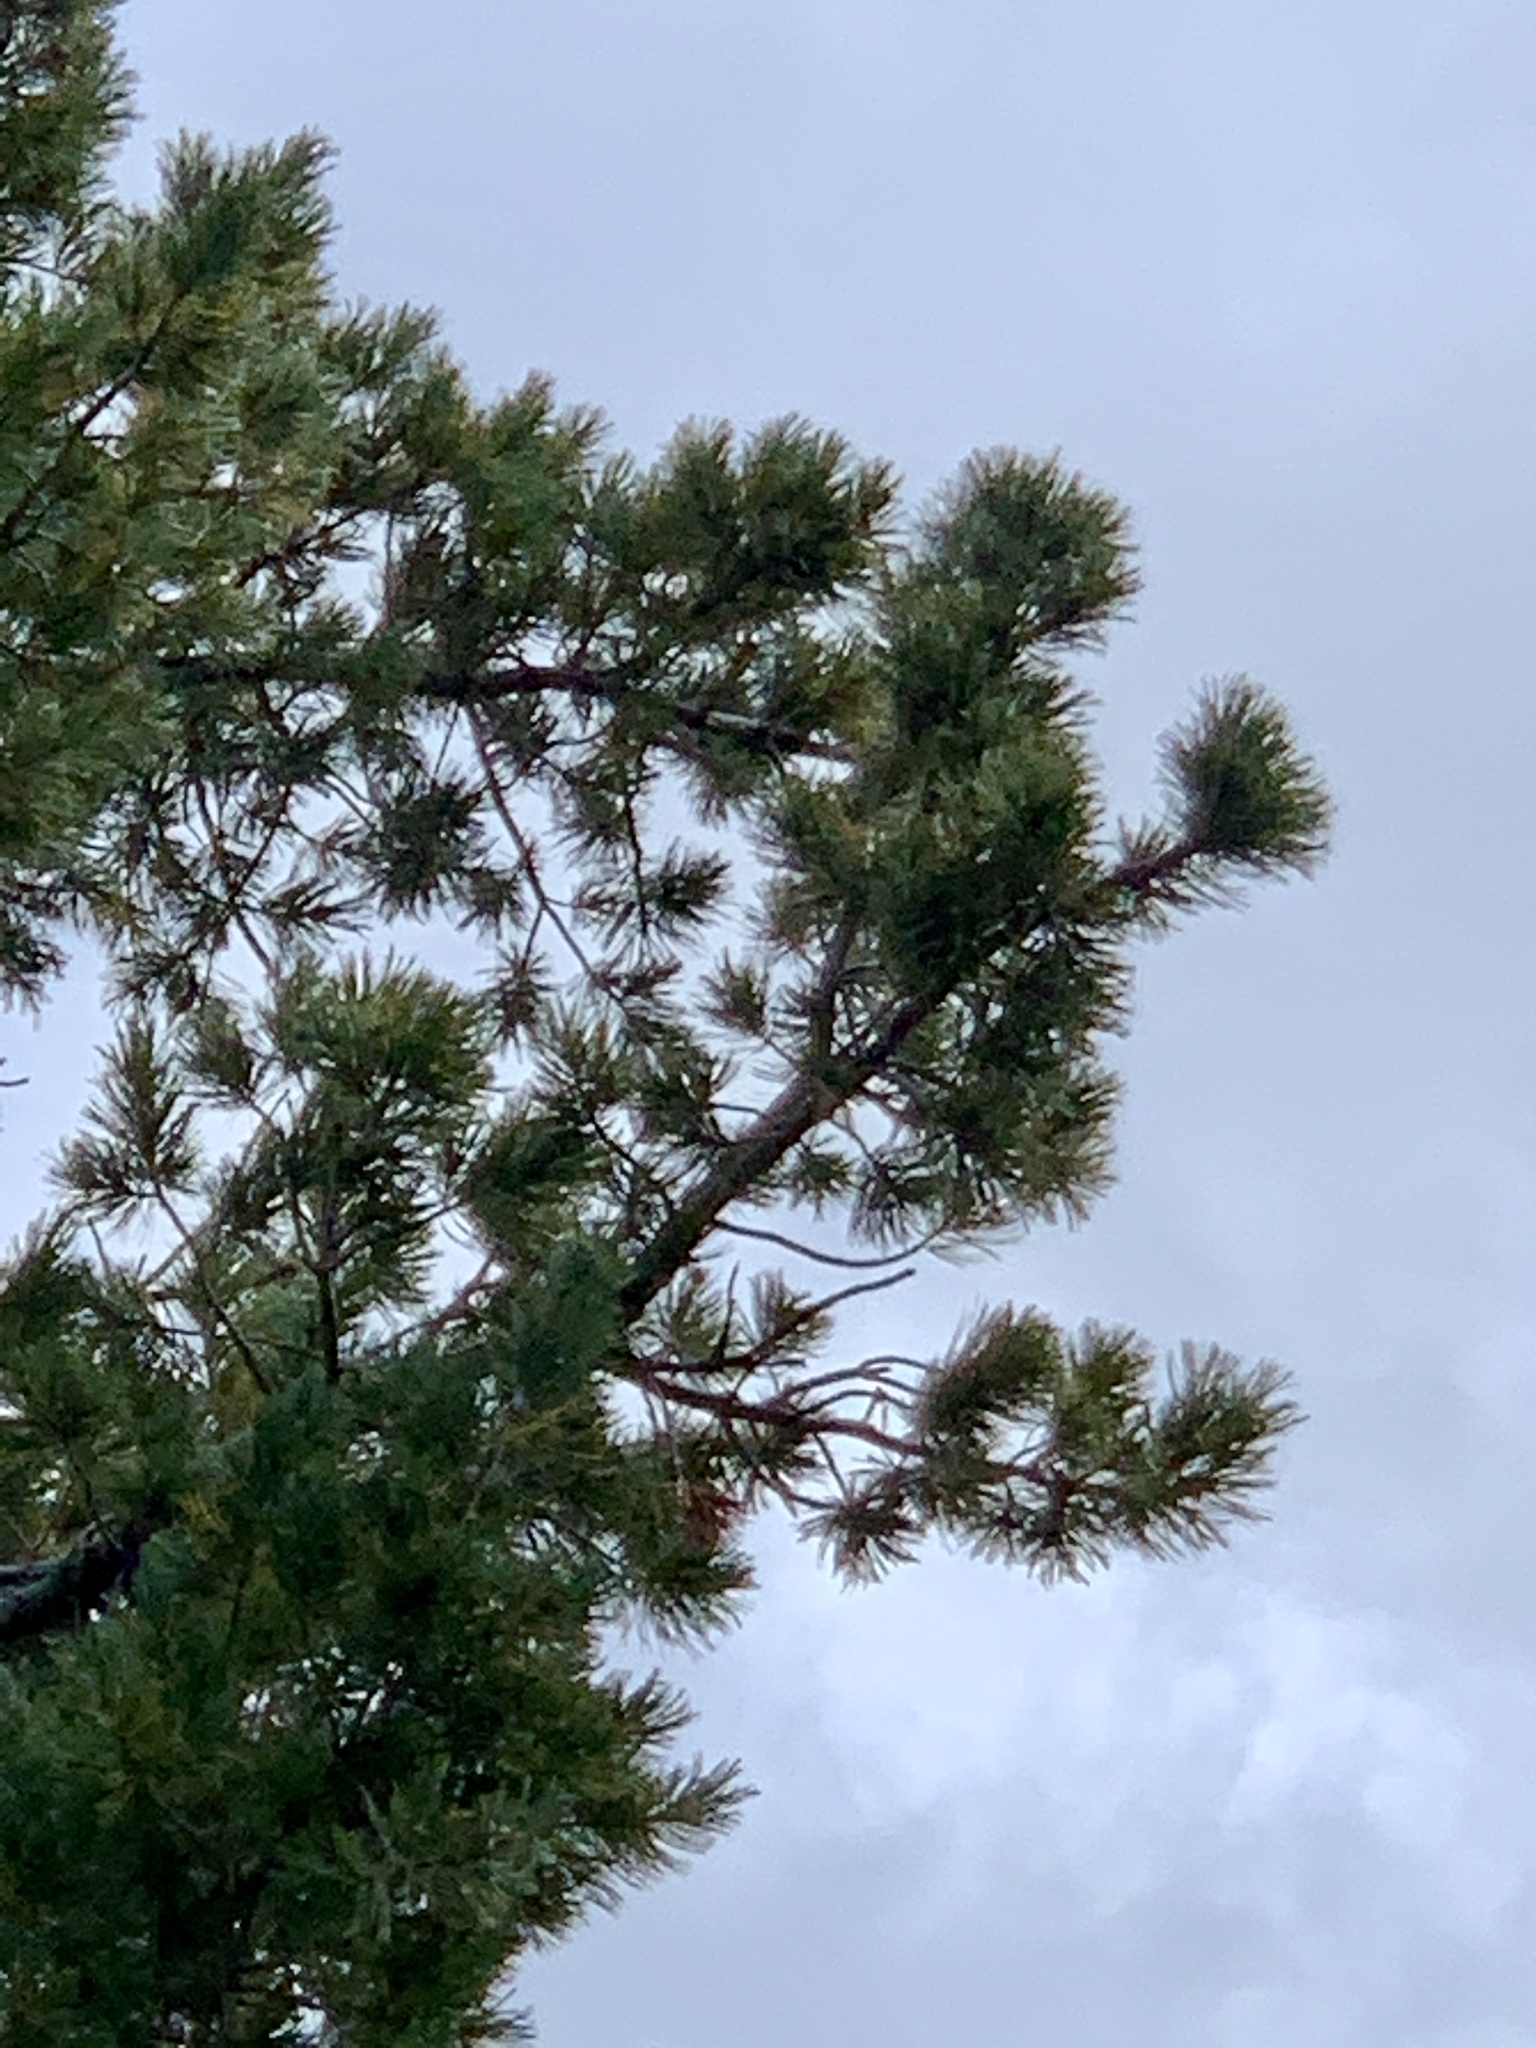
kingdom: Plantae
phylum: Tracheophyta
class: Pinopsida
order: Pinales
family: Pinaceae
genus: Pinus
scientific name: Pinus strobiformis
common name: Southwestern white pine
